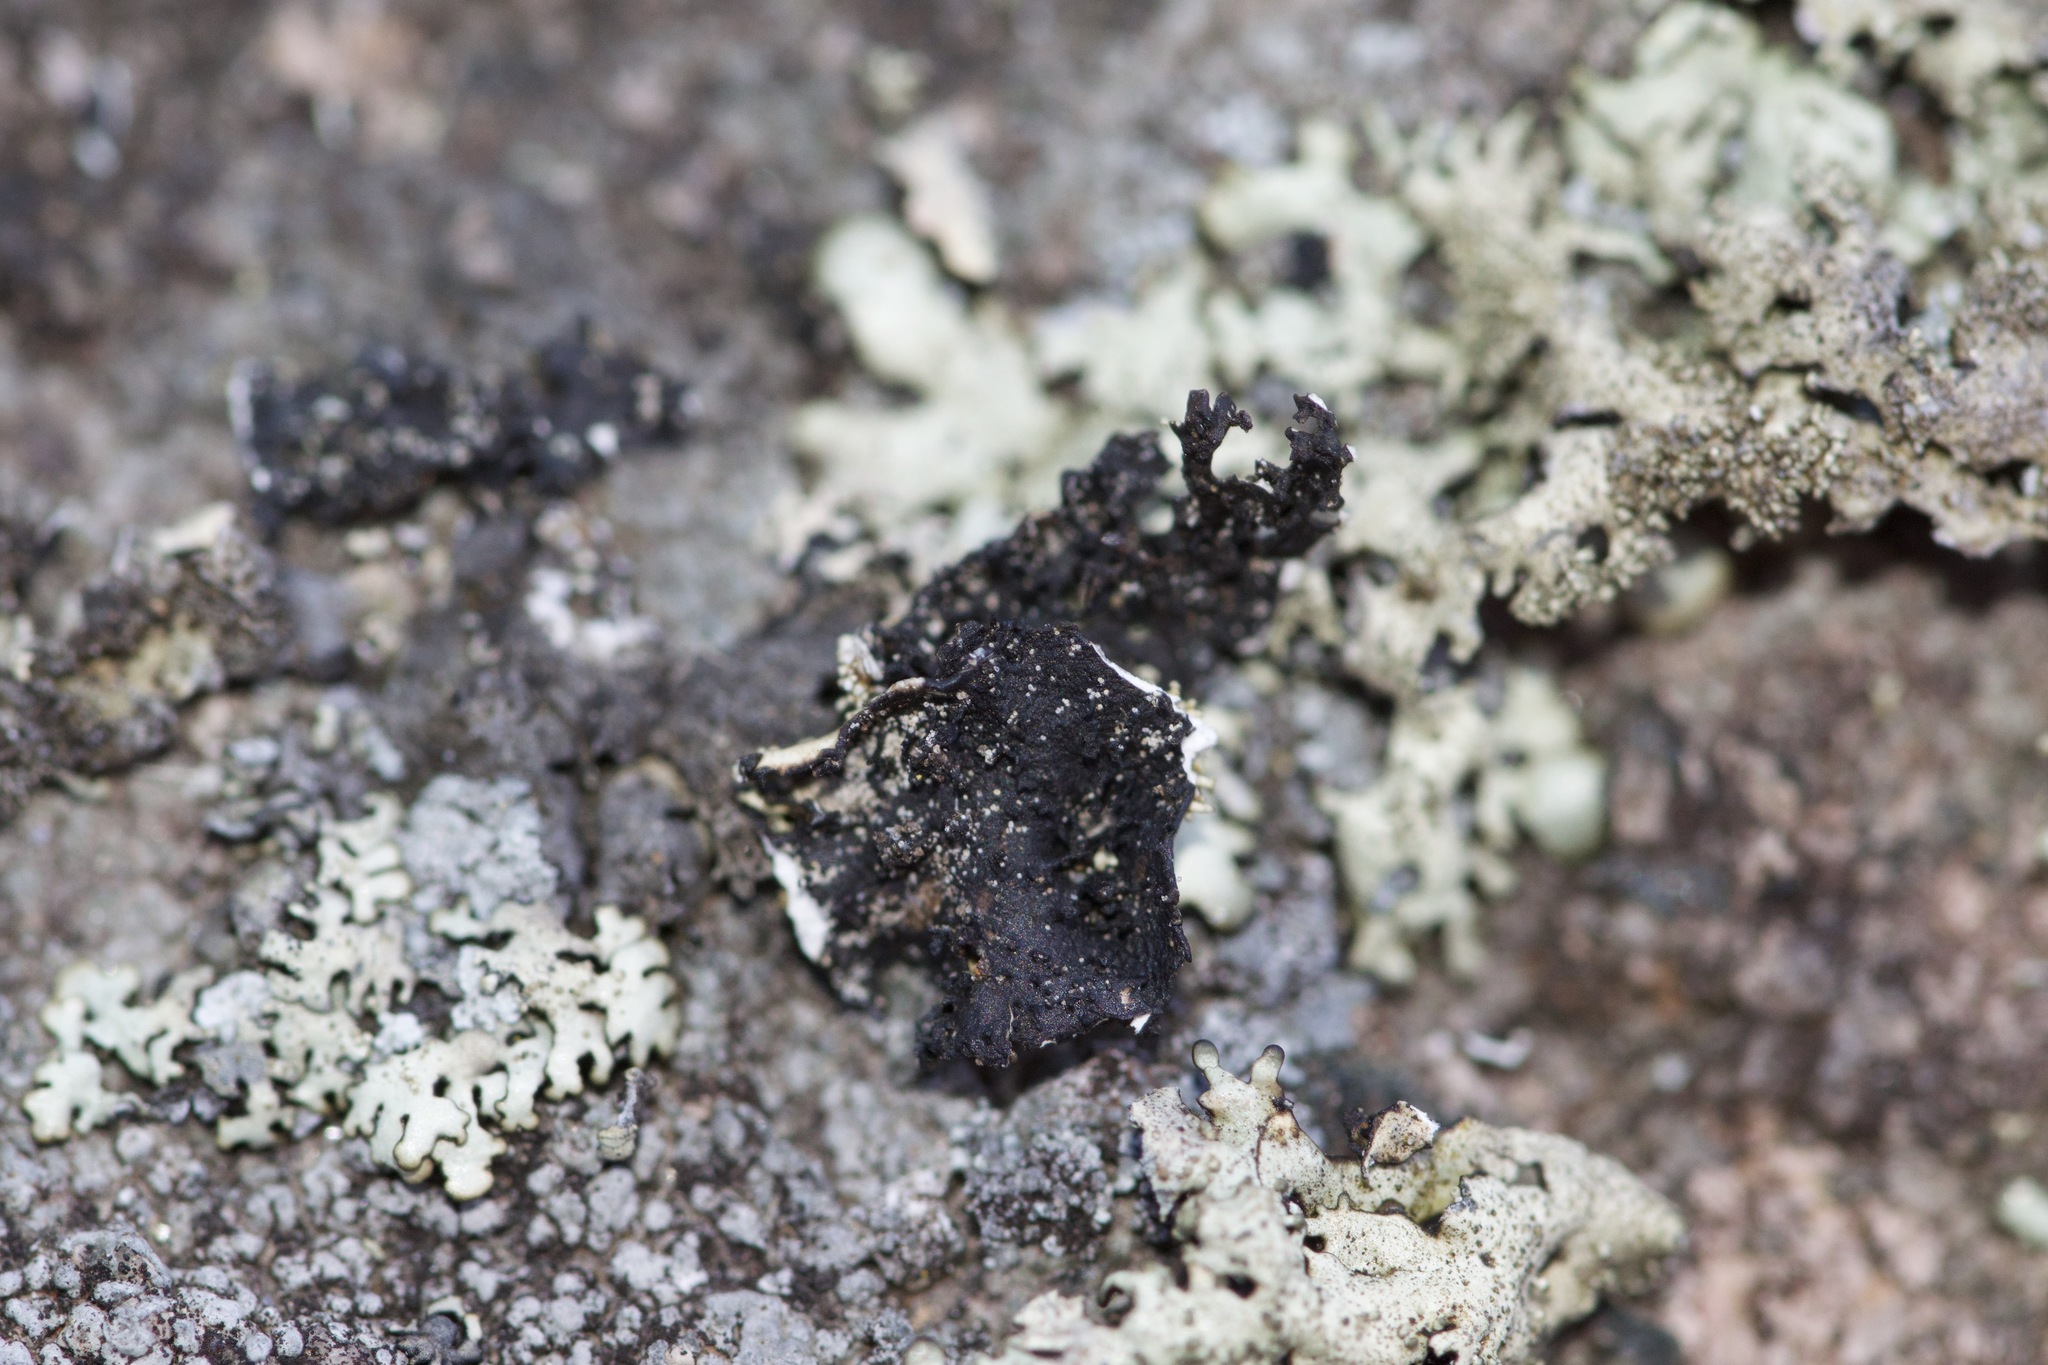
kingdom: Fungi
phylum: Ascomycota
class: Lecanoromycetes
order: Lecanorales
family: Parmeliaceae
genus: Xanthoparmelia
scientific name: Xanthoparmelia conspersa
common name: Peppered rock shield
